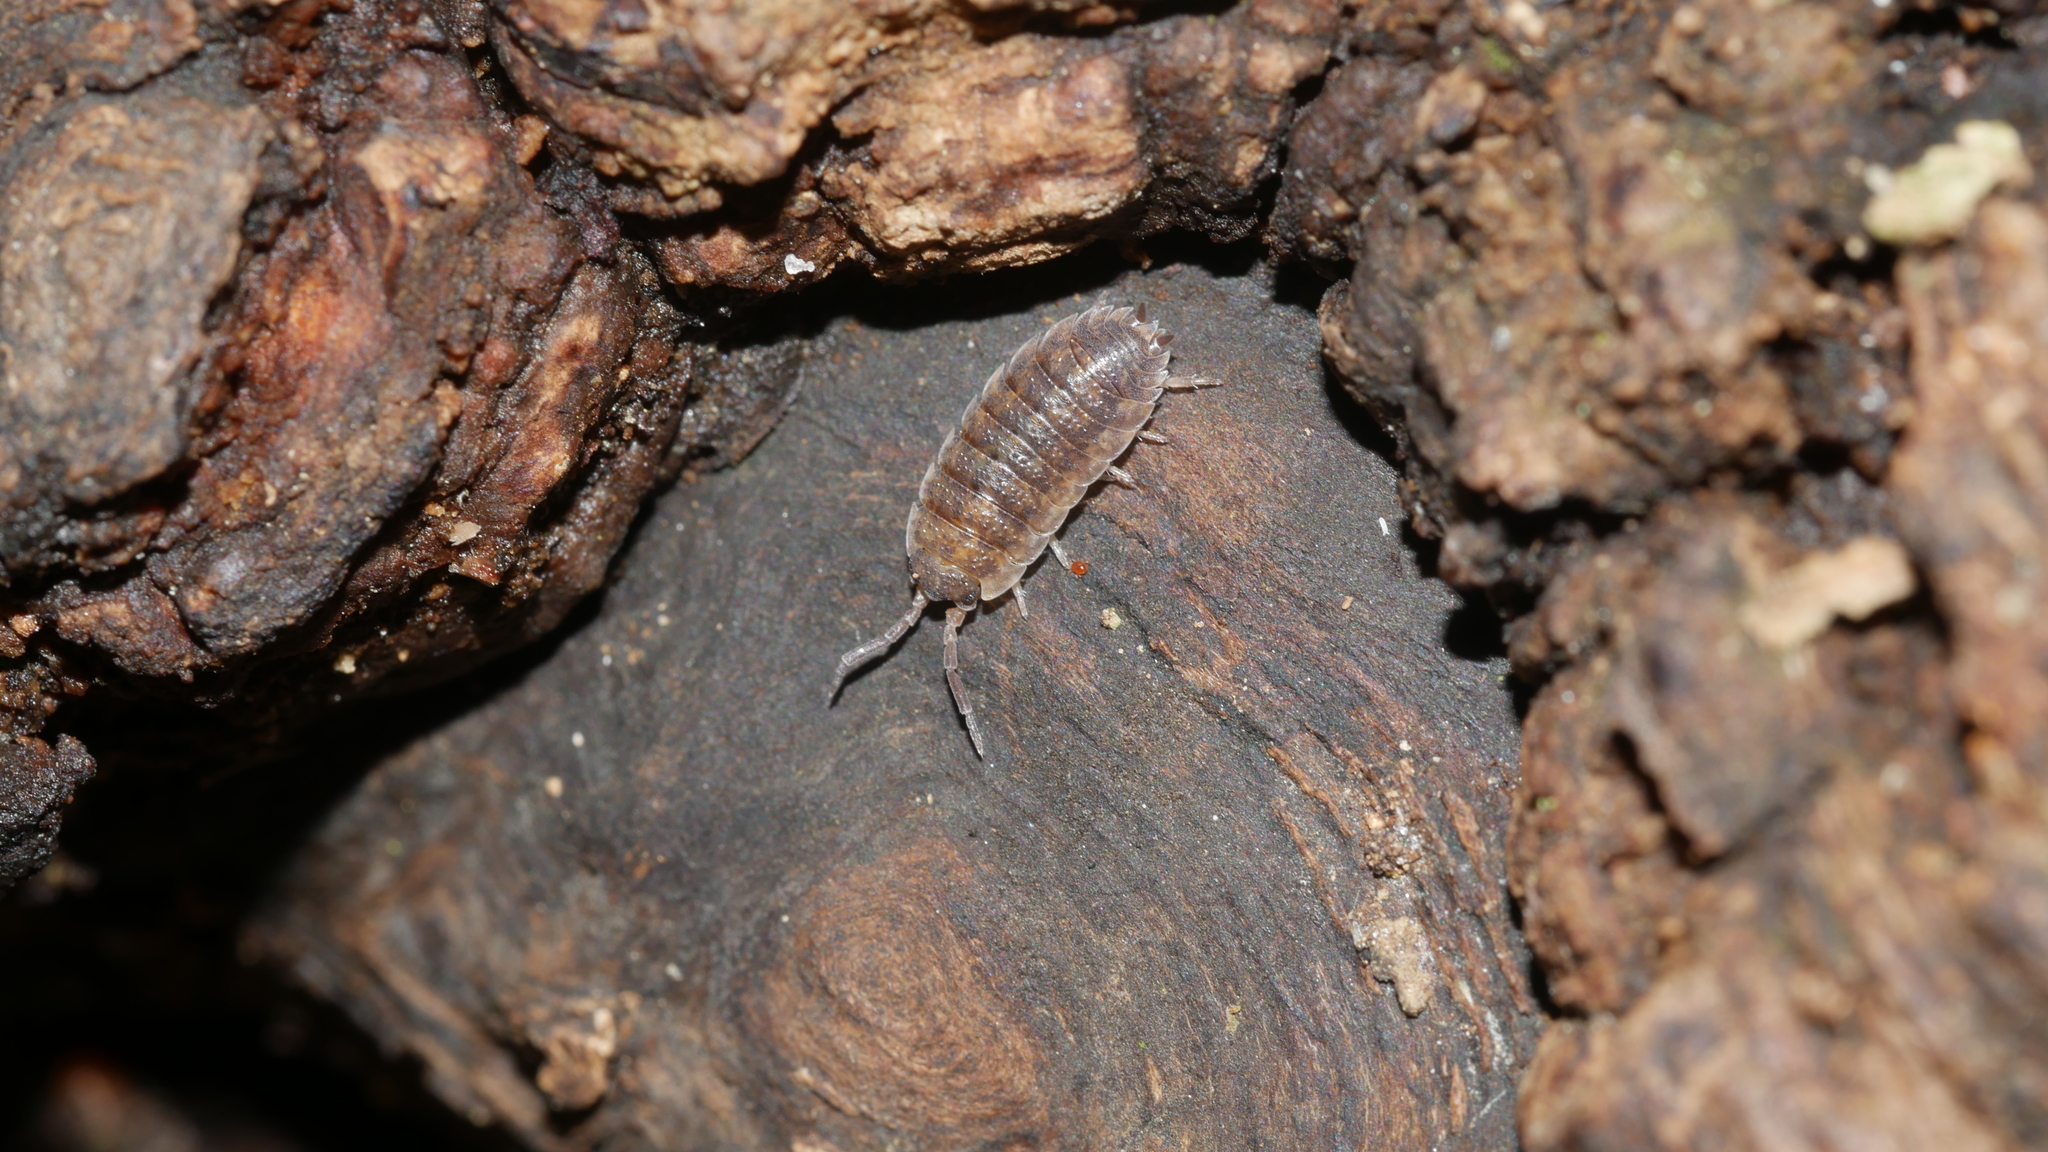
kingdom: Animalia
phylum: Arthropoda
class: Malacostraca
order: Isopoda
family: Porcellionidae
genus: Porcellio
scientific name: Porcellio scaber
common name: Common rough woodlouse
